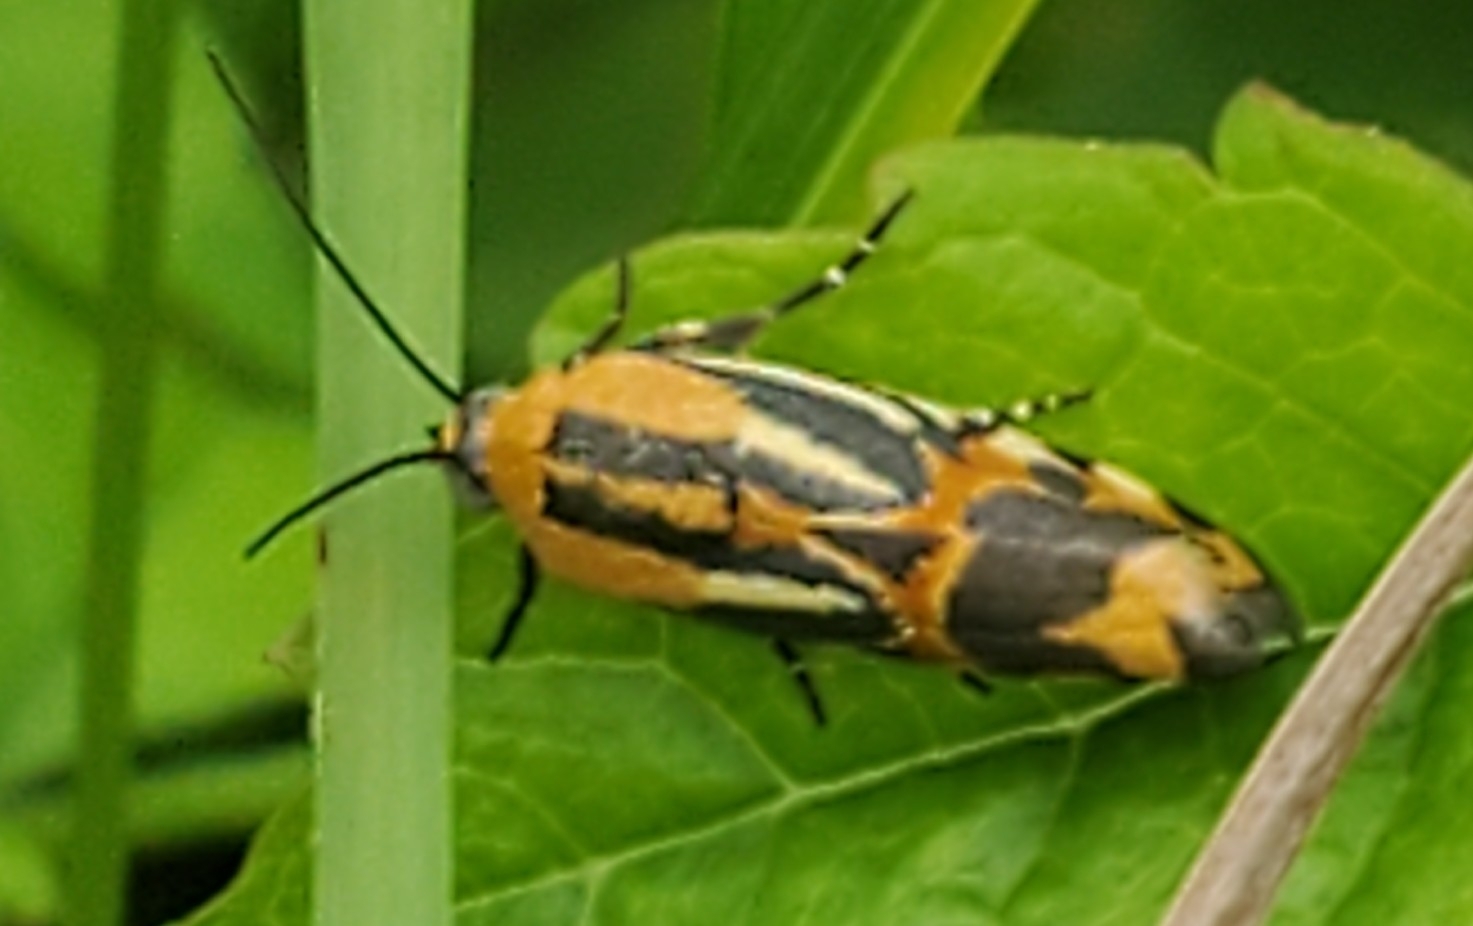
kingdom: Animalia
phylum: Arthropoda
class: Insecta
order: Lepidoptera
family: Noctuidae
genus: Acontia
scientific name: Acontia onagrus
